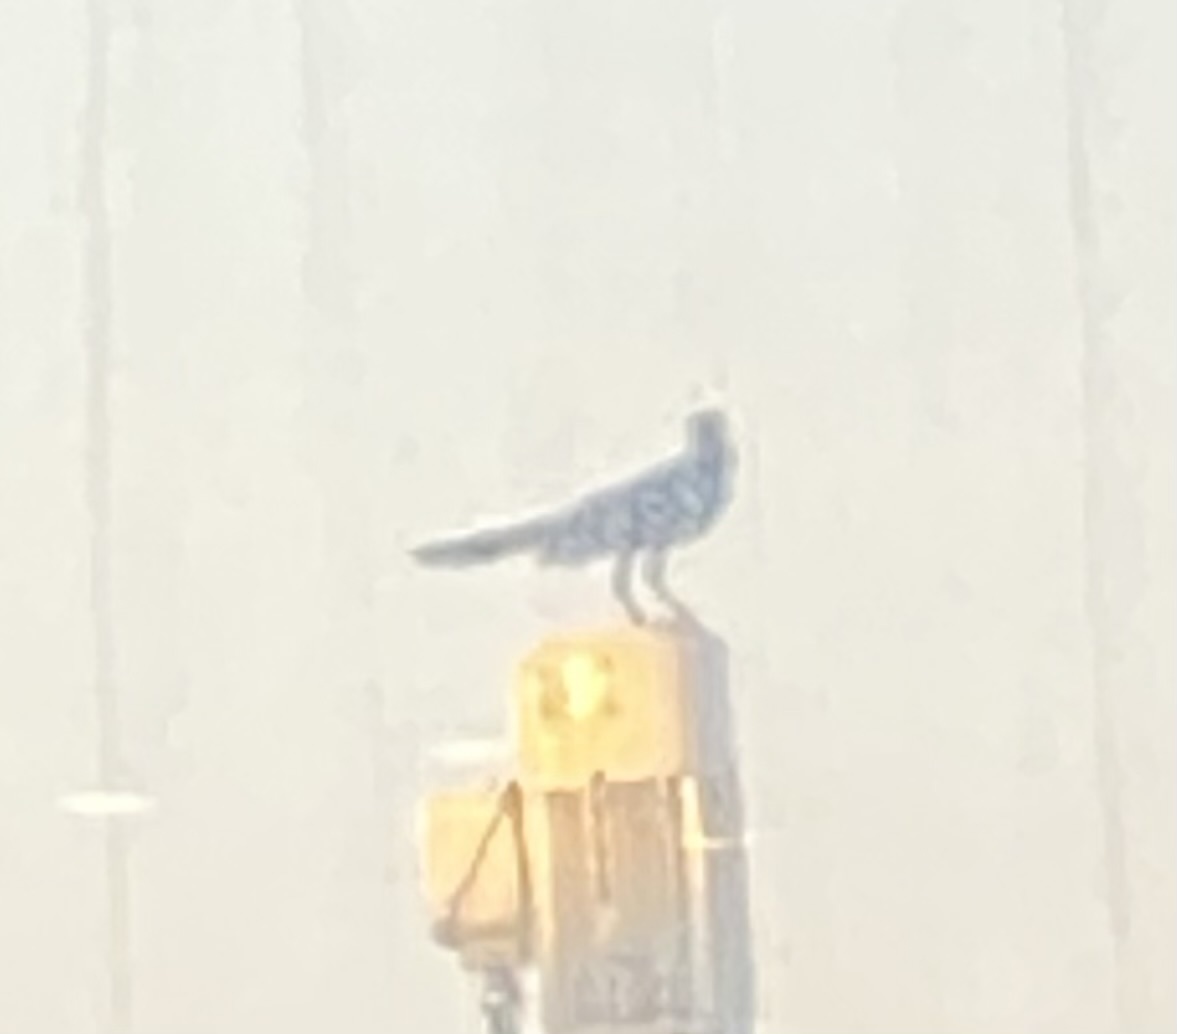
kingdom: Animalia
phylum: Chordata
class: Aves
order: Passeriformes
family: Icteridae
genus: Quiscalus
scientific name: Quiscalus mexicanus
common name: Great-tailed grackle
